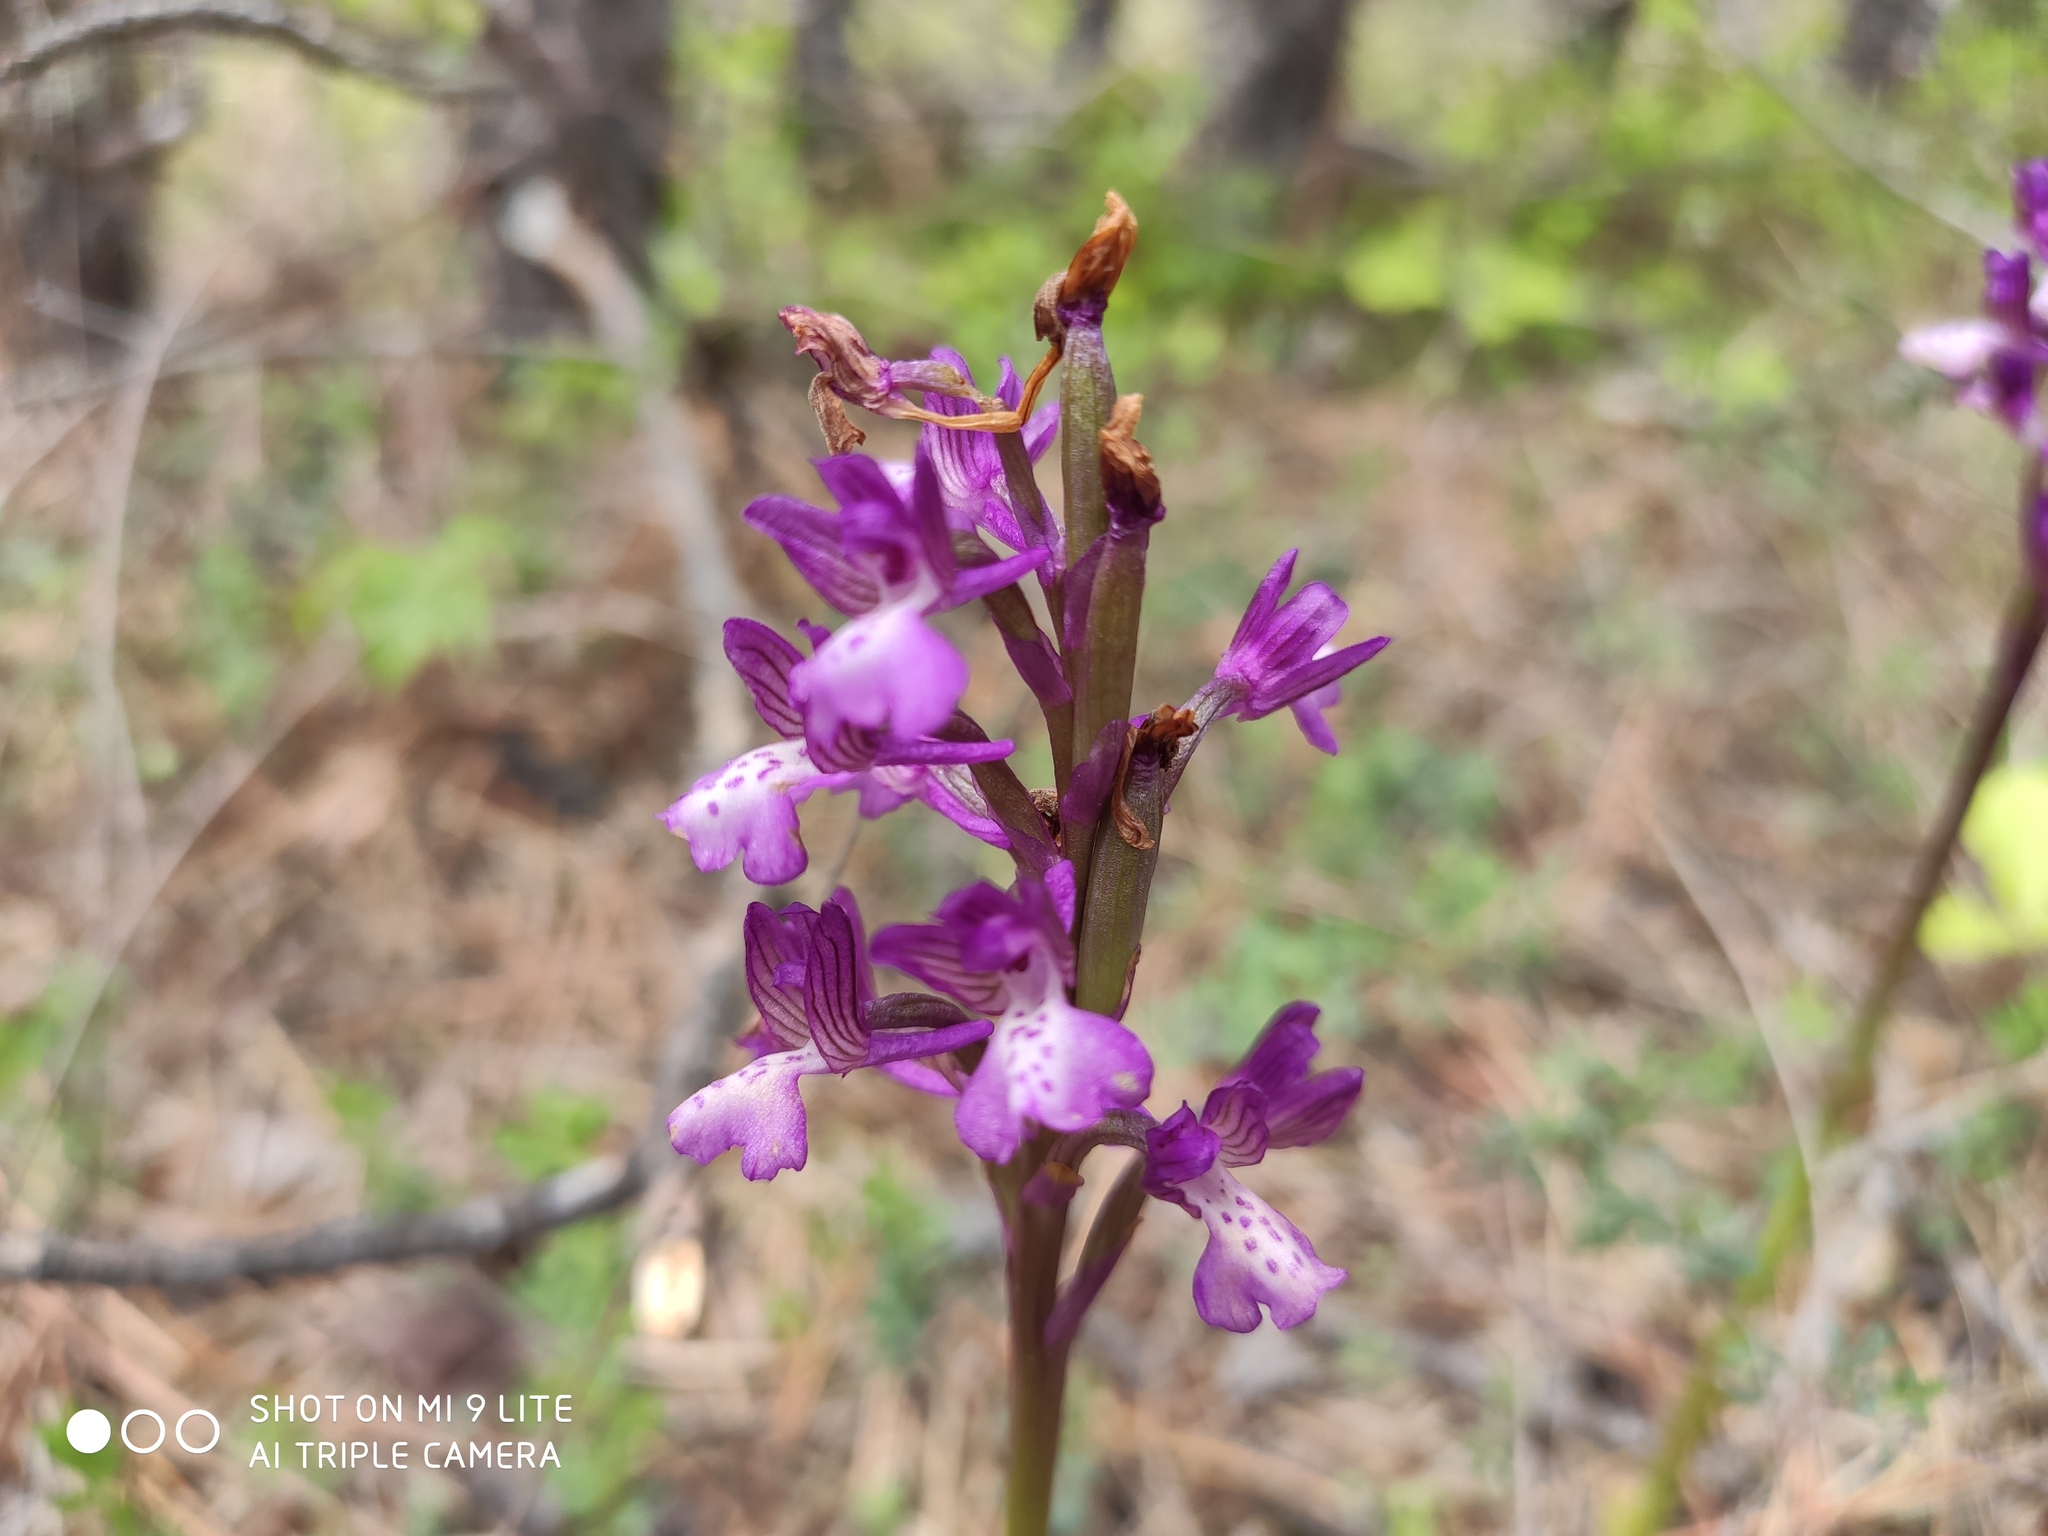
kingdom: Plantae
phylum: Tracheophyta
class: Liliopsida
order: Asparagales
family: Orchidaceae
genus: Anacamptis
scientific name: Anacamptis morio
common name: Green-winged orchid
